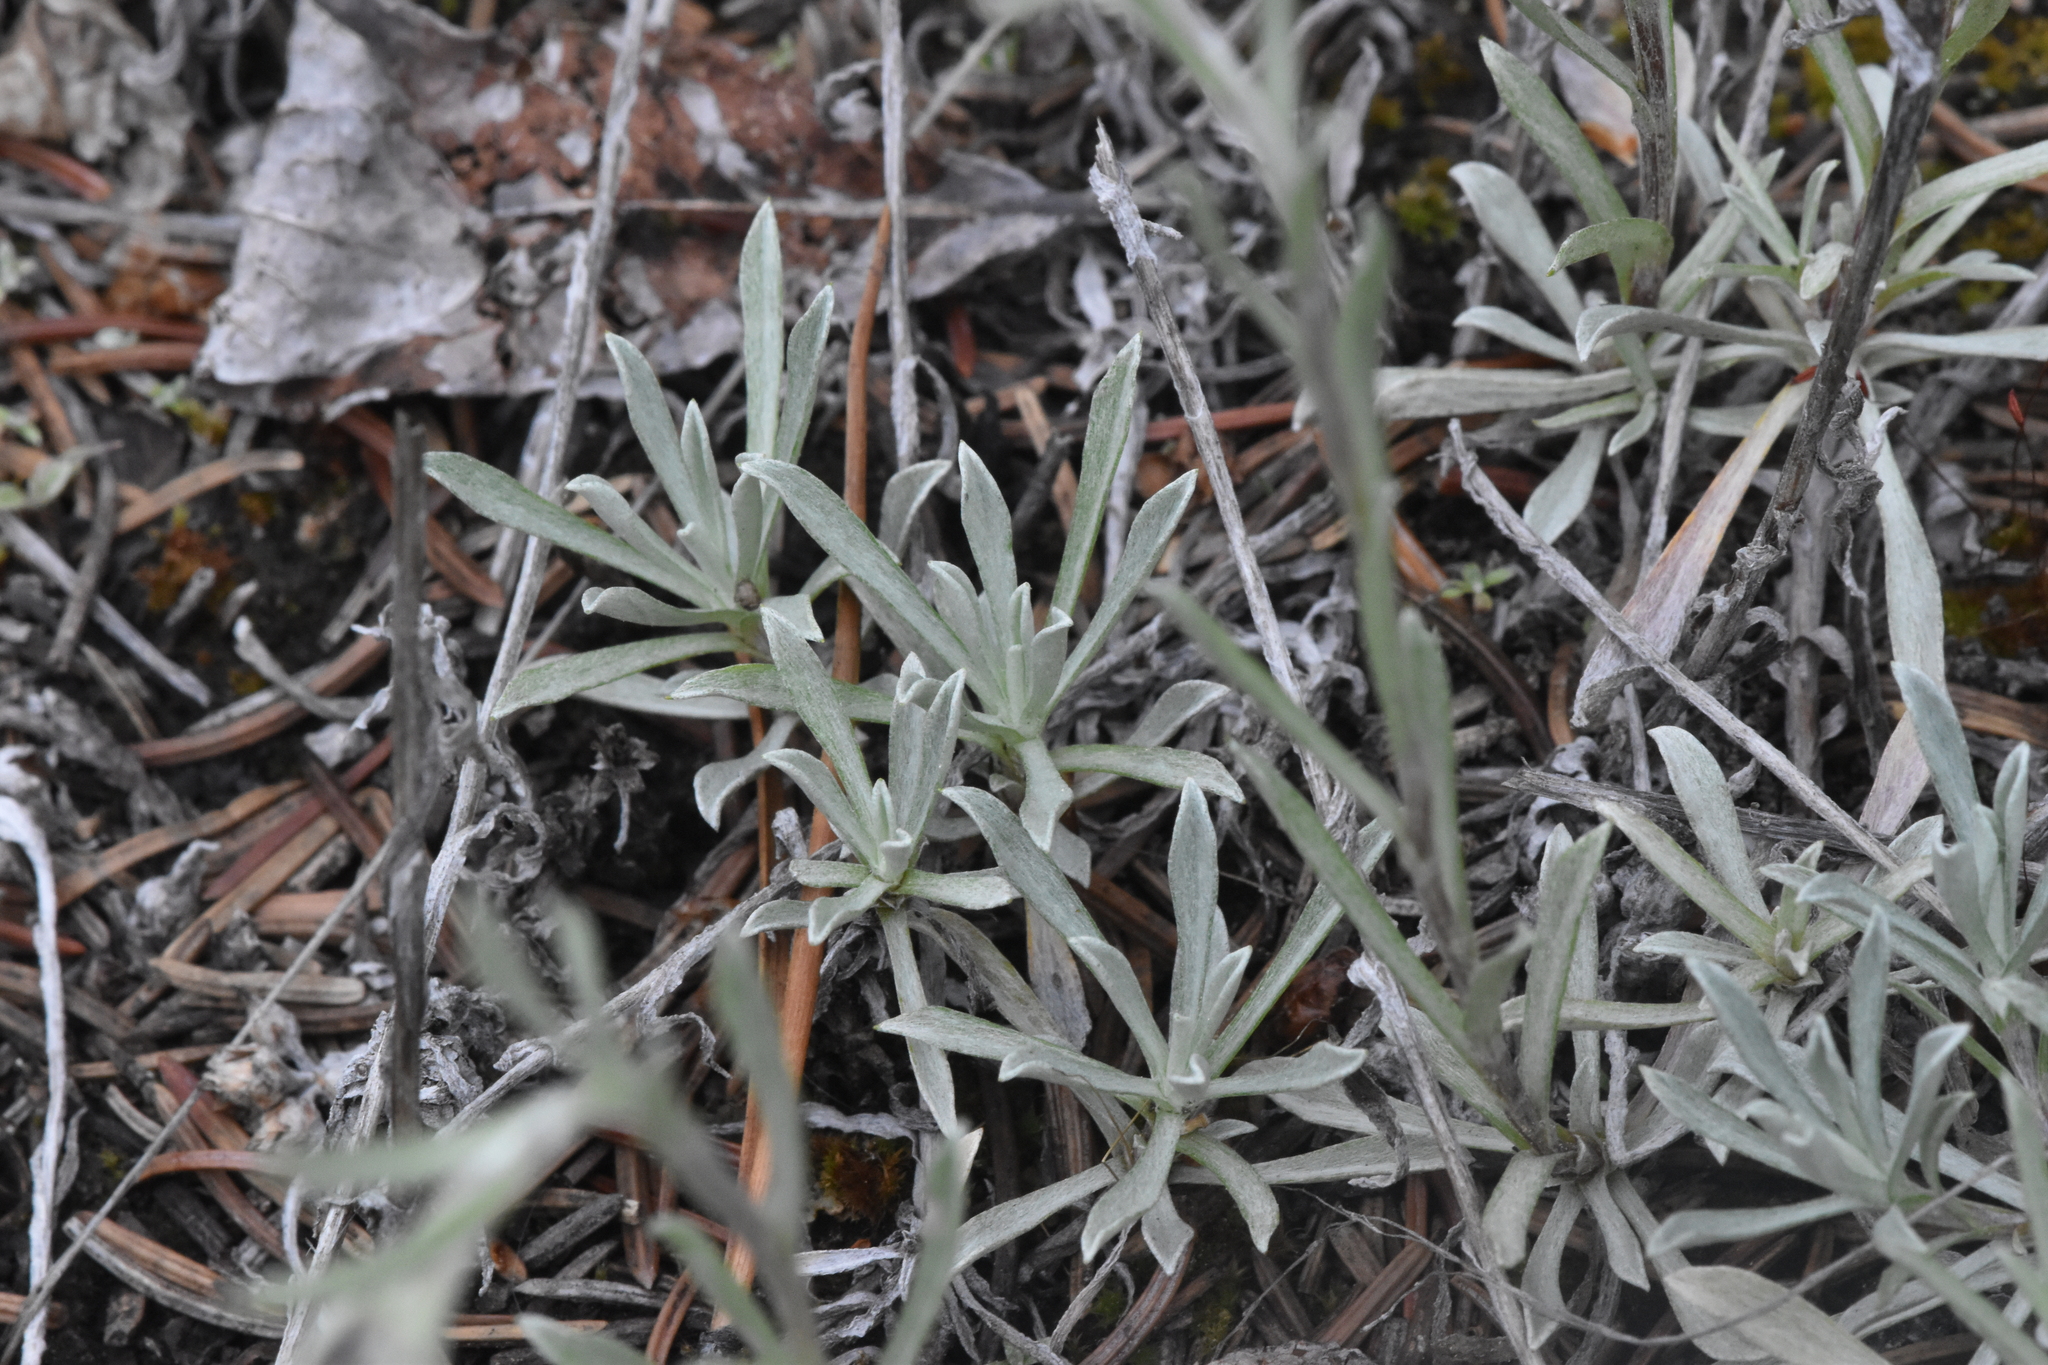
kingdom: Plantae
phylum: Tracheophyta
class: Magnoliopsida
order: Asterales
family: Asteraceae
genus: Antennaria
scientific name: Antennaria rosea
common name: Rosy pussytoes
